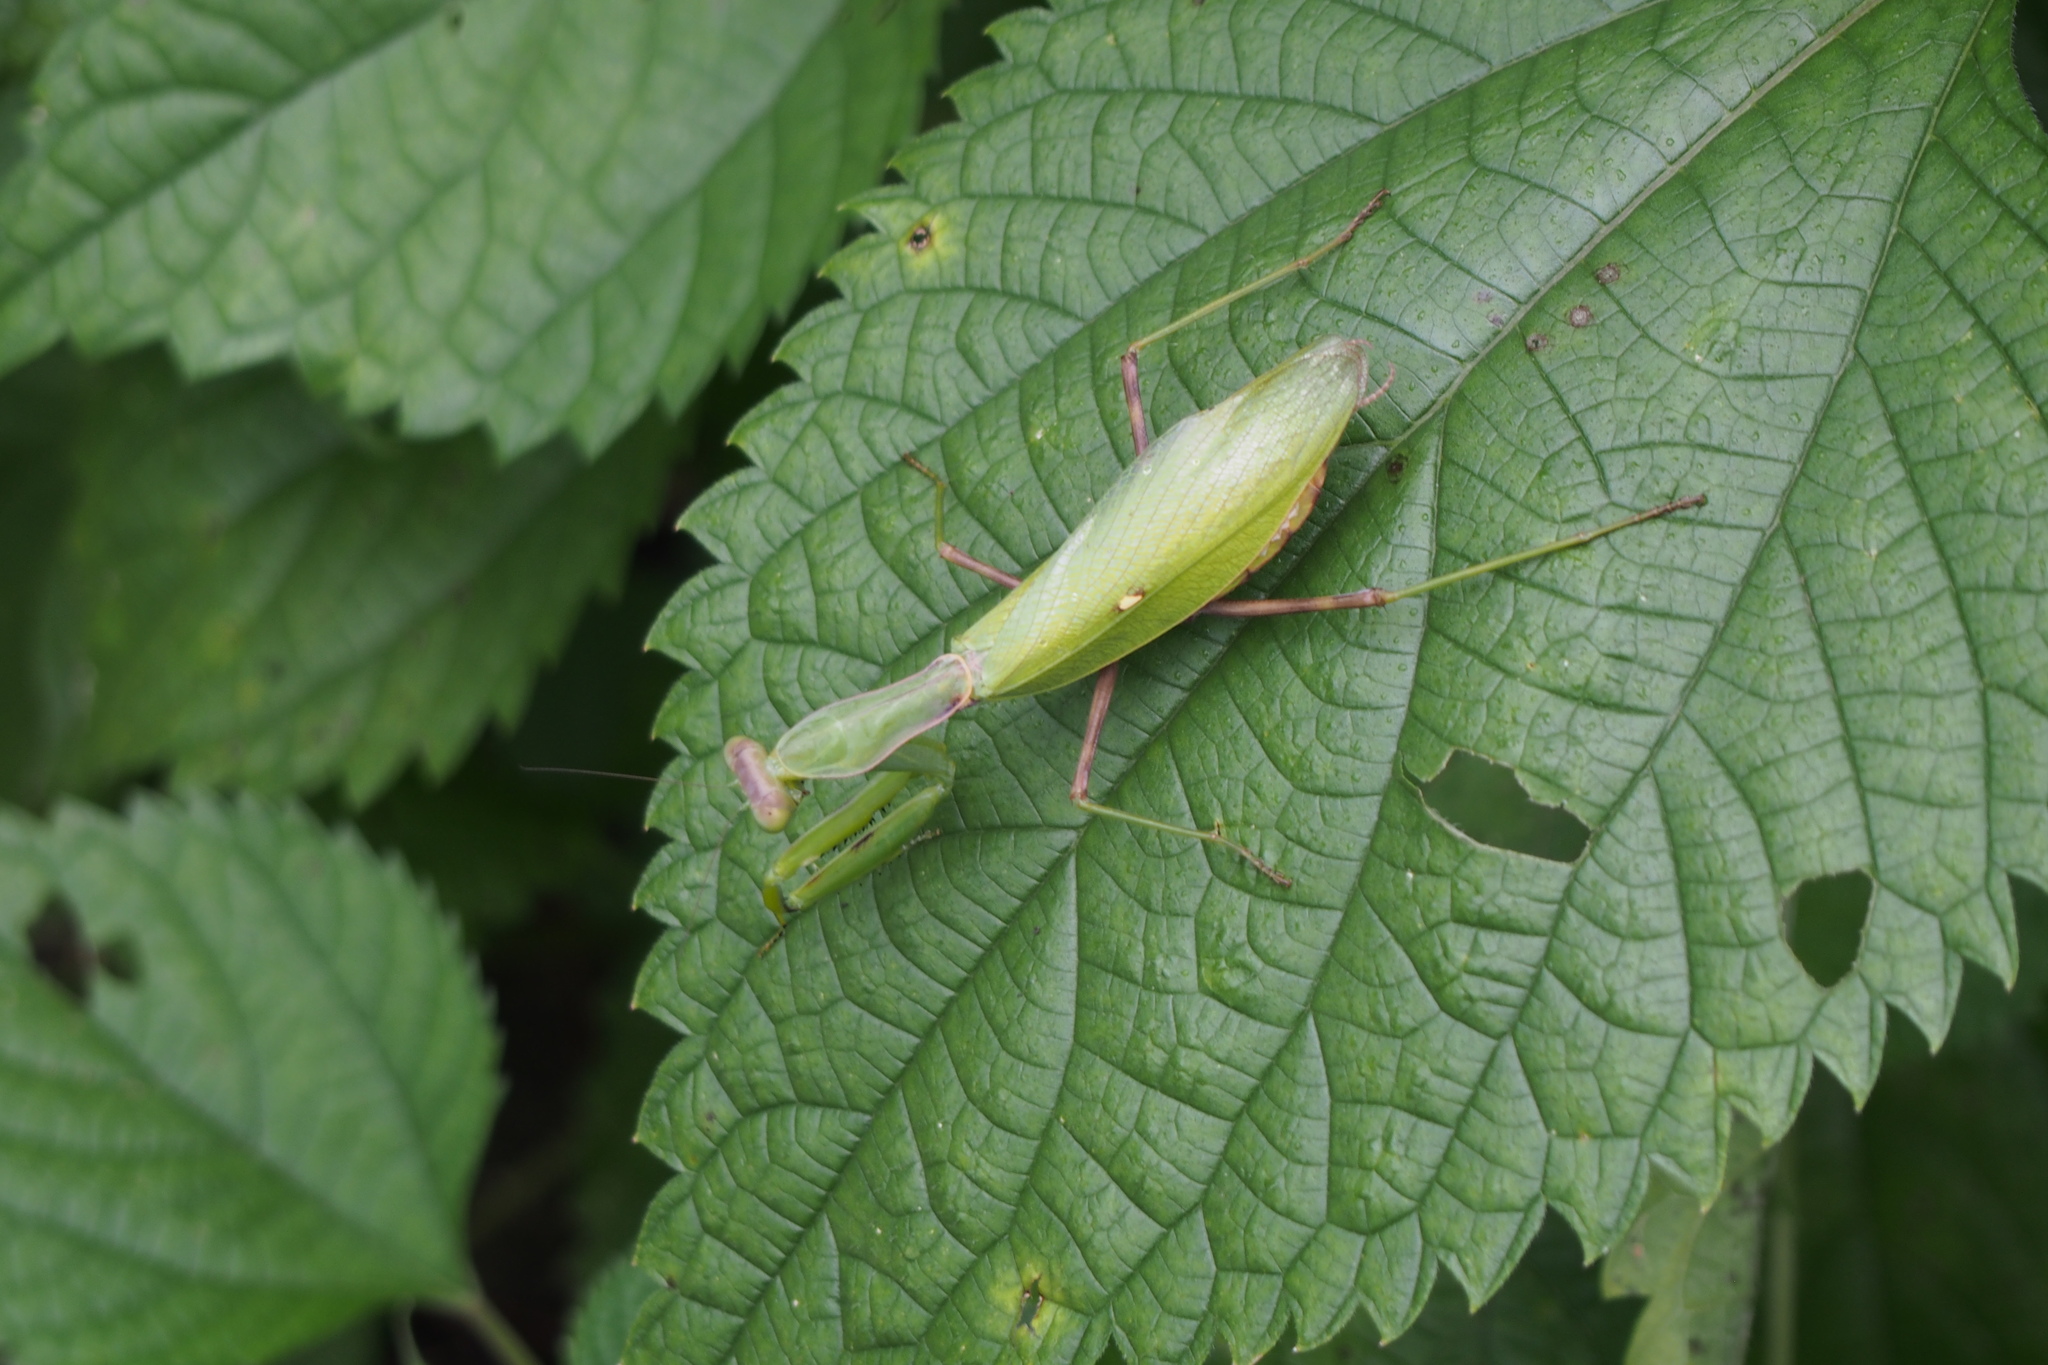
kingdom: Animalia
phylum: Arthropoda
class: Insecta
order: Mantodea
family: Mantidae
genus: Hierodula
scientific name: Hierodula patellifera
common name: Asian mantis
